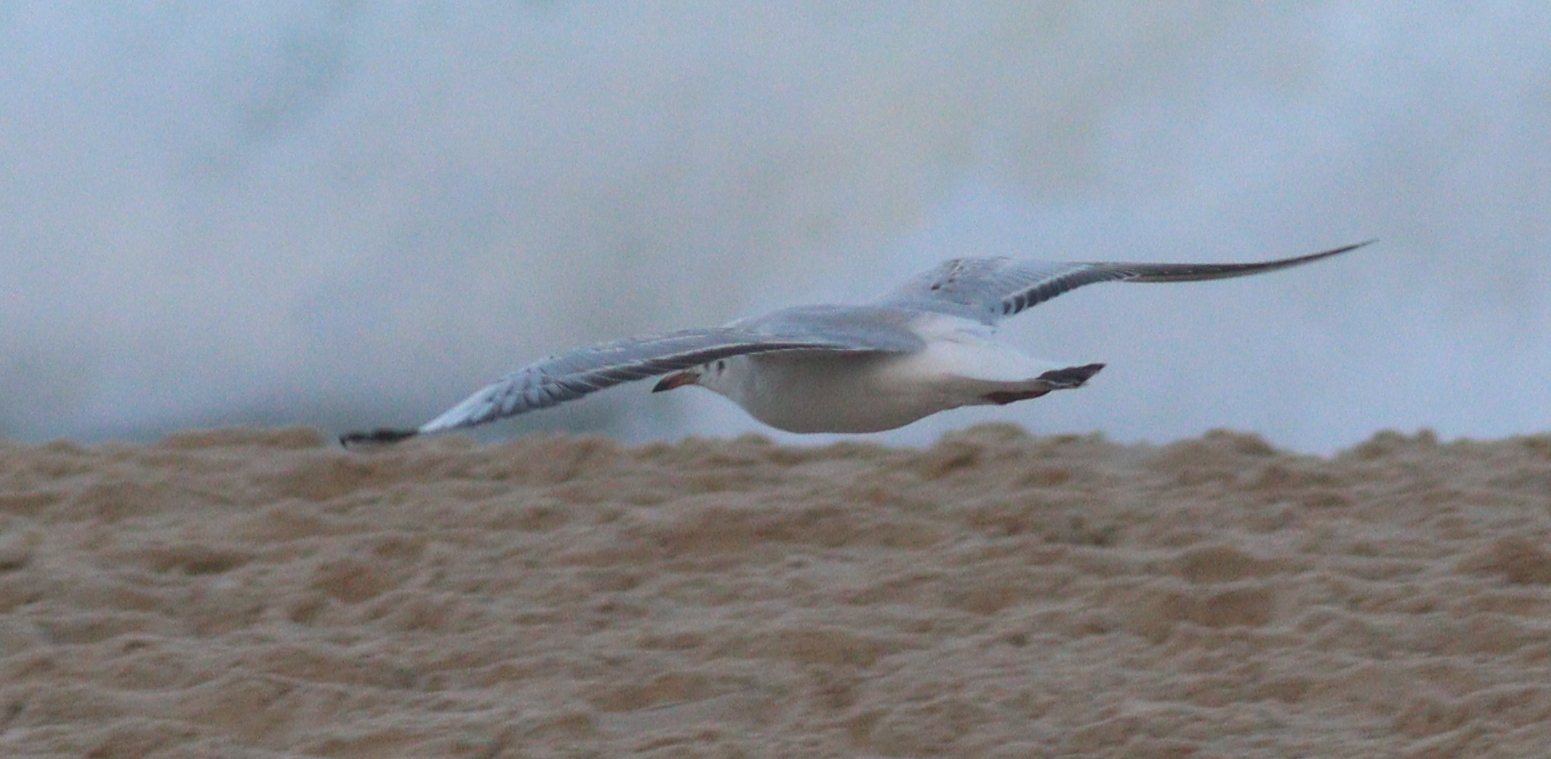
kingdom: Animalia
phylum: Chordata
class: Aves
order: Charadriiformes
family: Laridae
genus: Chroicocephalus
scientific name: Chroicocephalus ridibundus
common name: Black-headed gull
